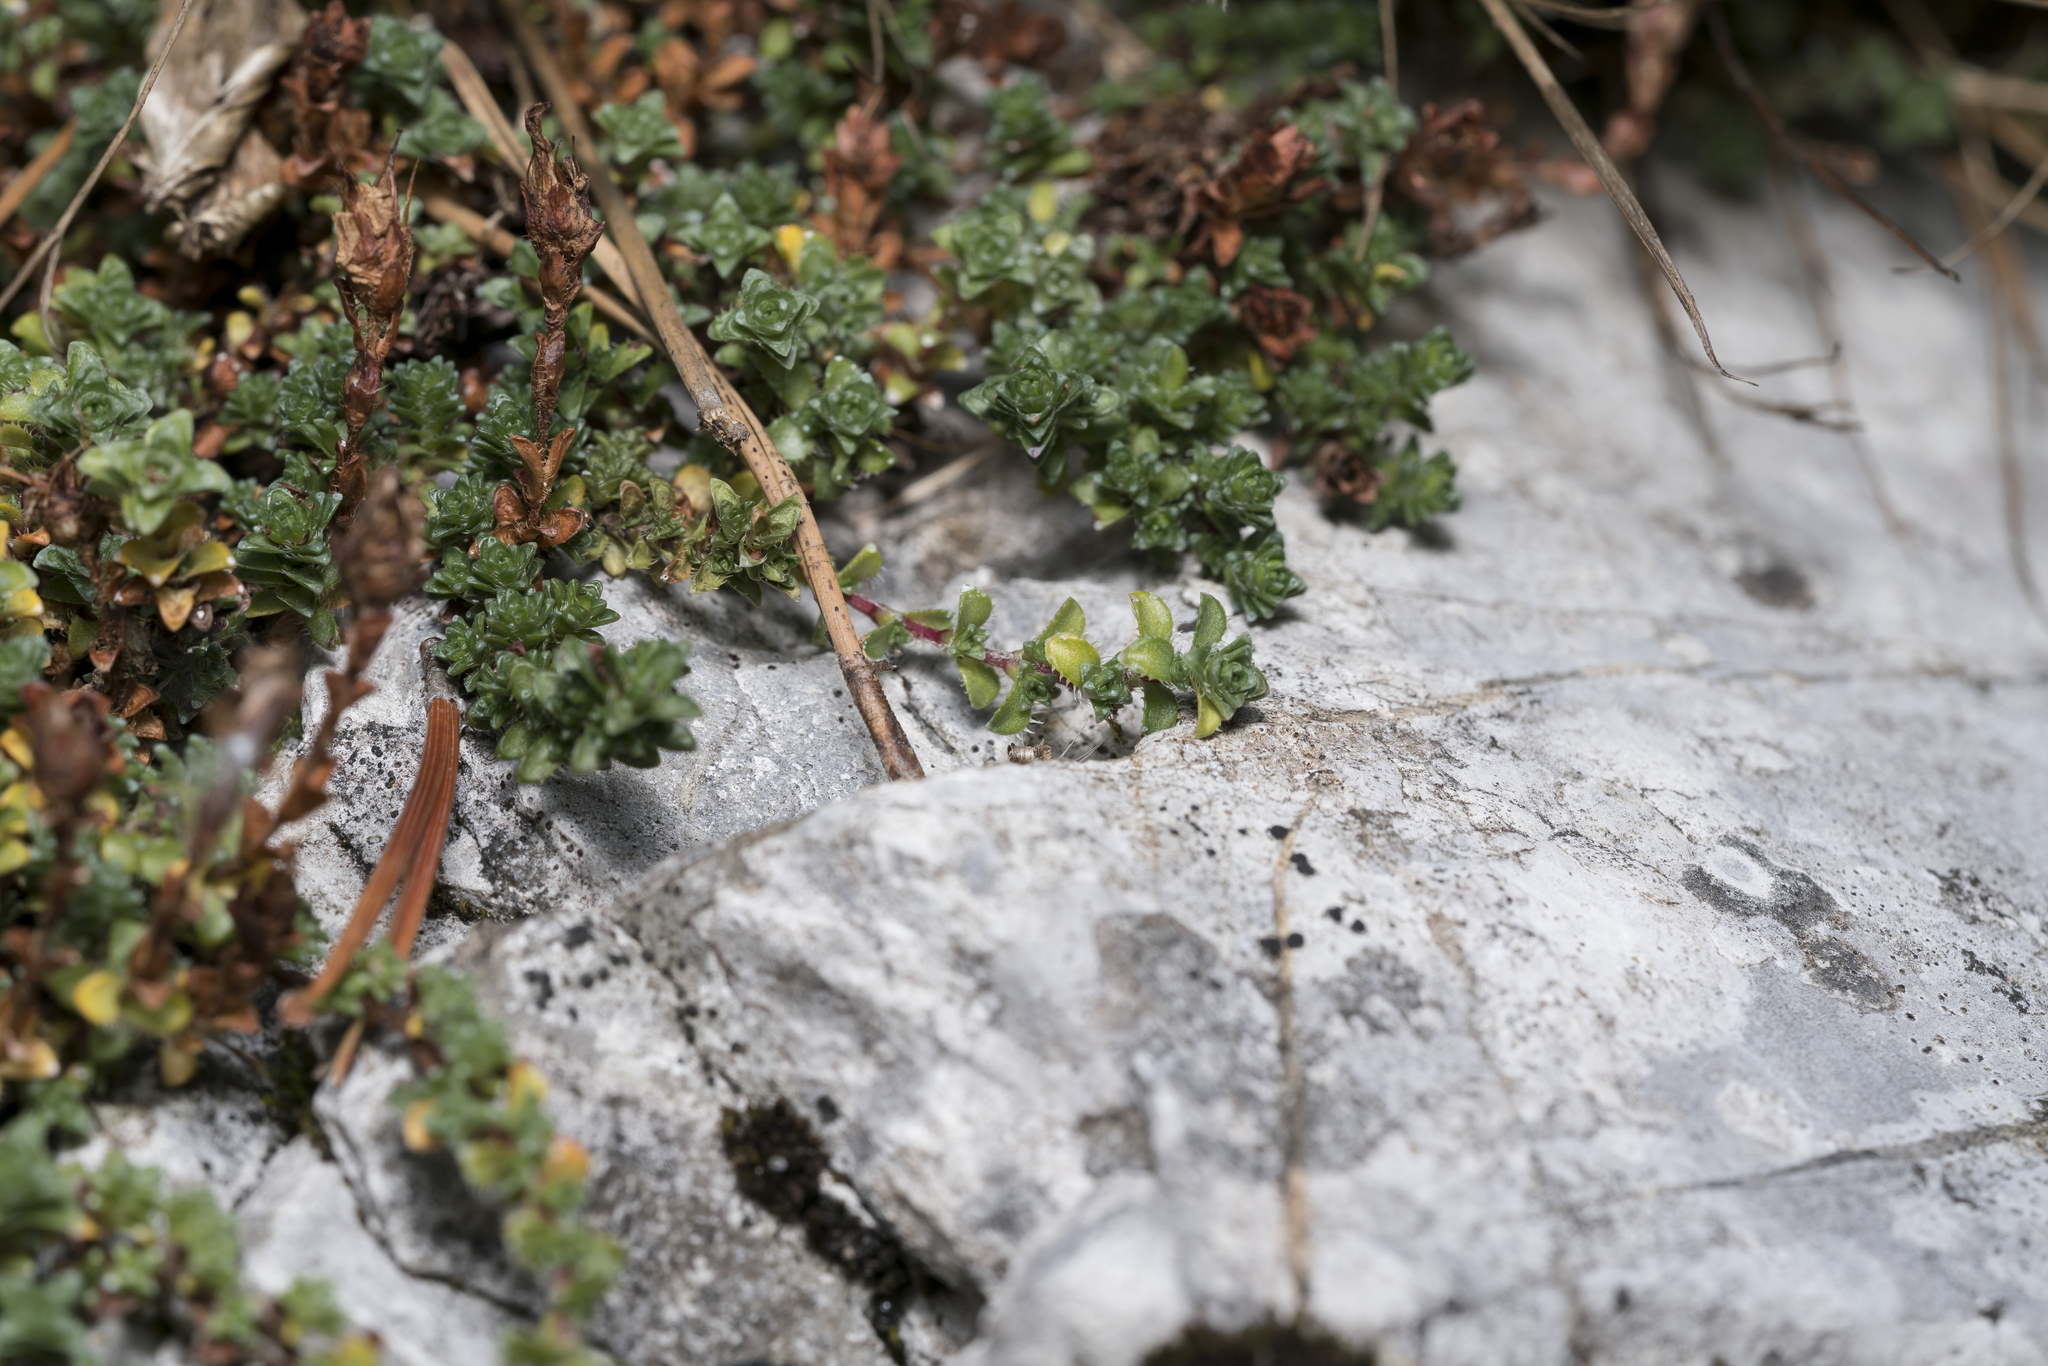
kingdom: Plantae
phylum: Tracheophyta
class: Magnoliopsida
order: Saxifragales
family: Saxifragaceae
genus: Saxifraga
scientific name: Saxifraga oppositifolia
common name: Purple saxifrage
